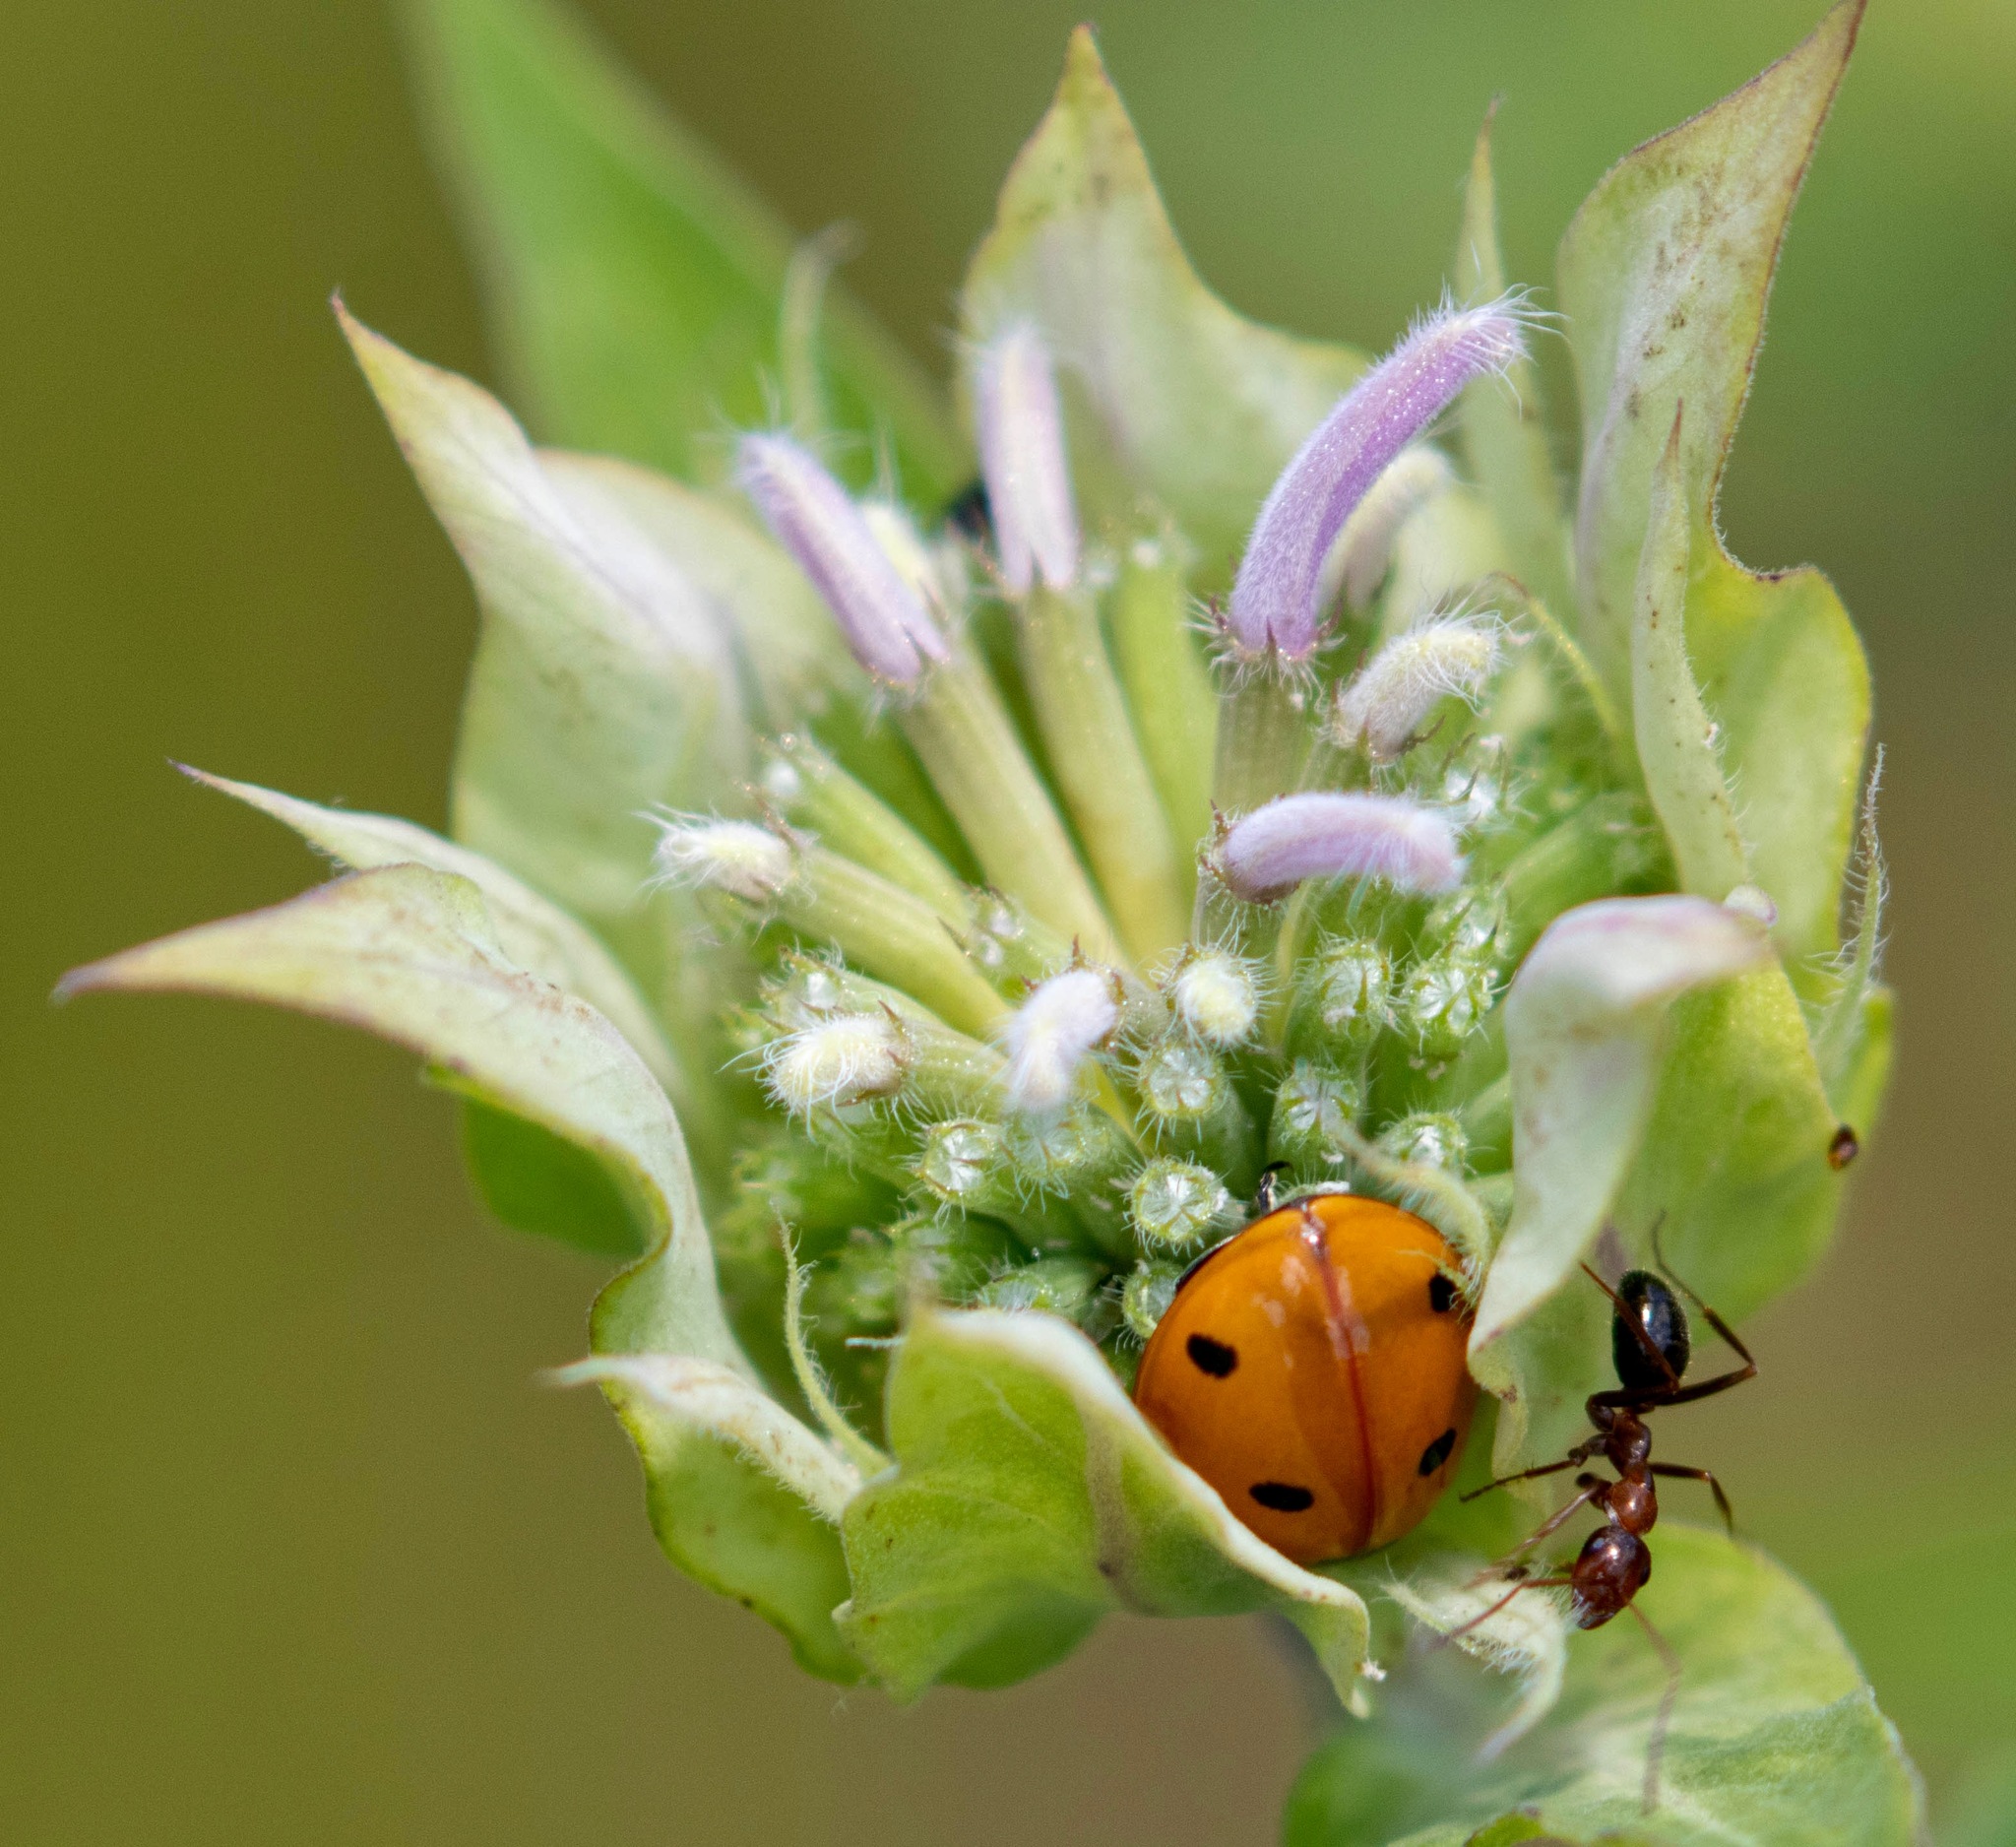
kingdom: Animalia
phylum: Arthropoda
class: Insecta
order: Hymenoptera
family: Formicidae
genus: Formica
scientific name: Formica
